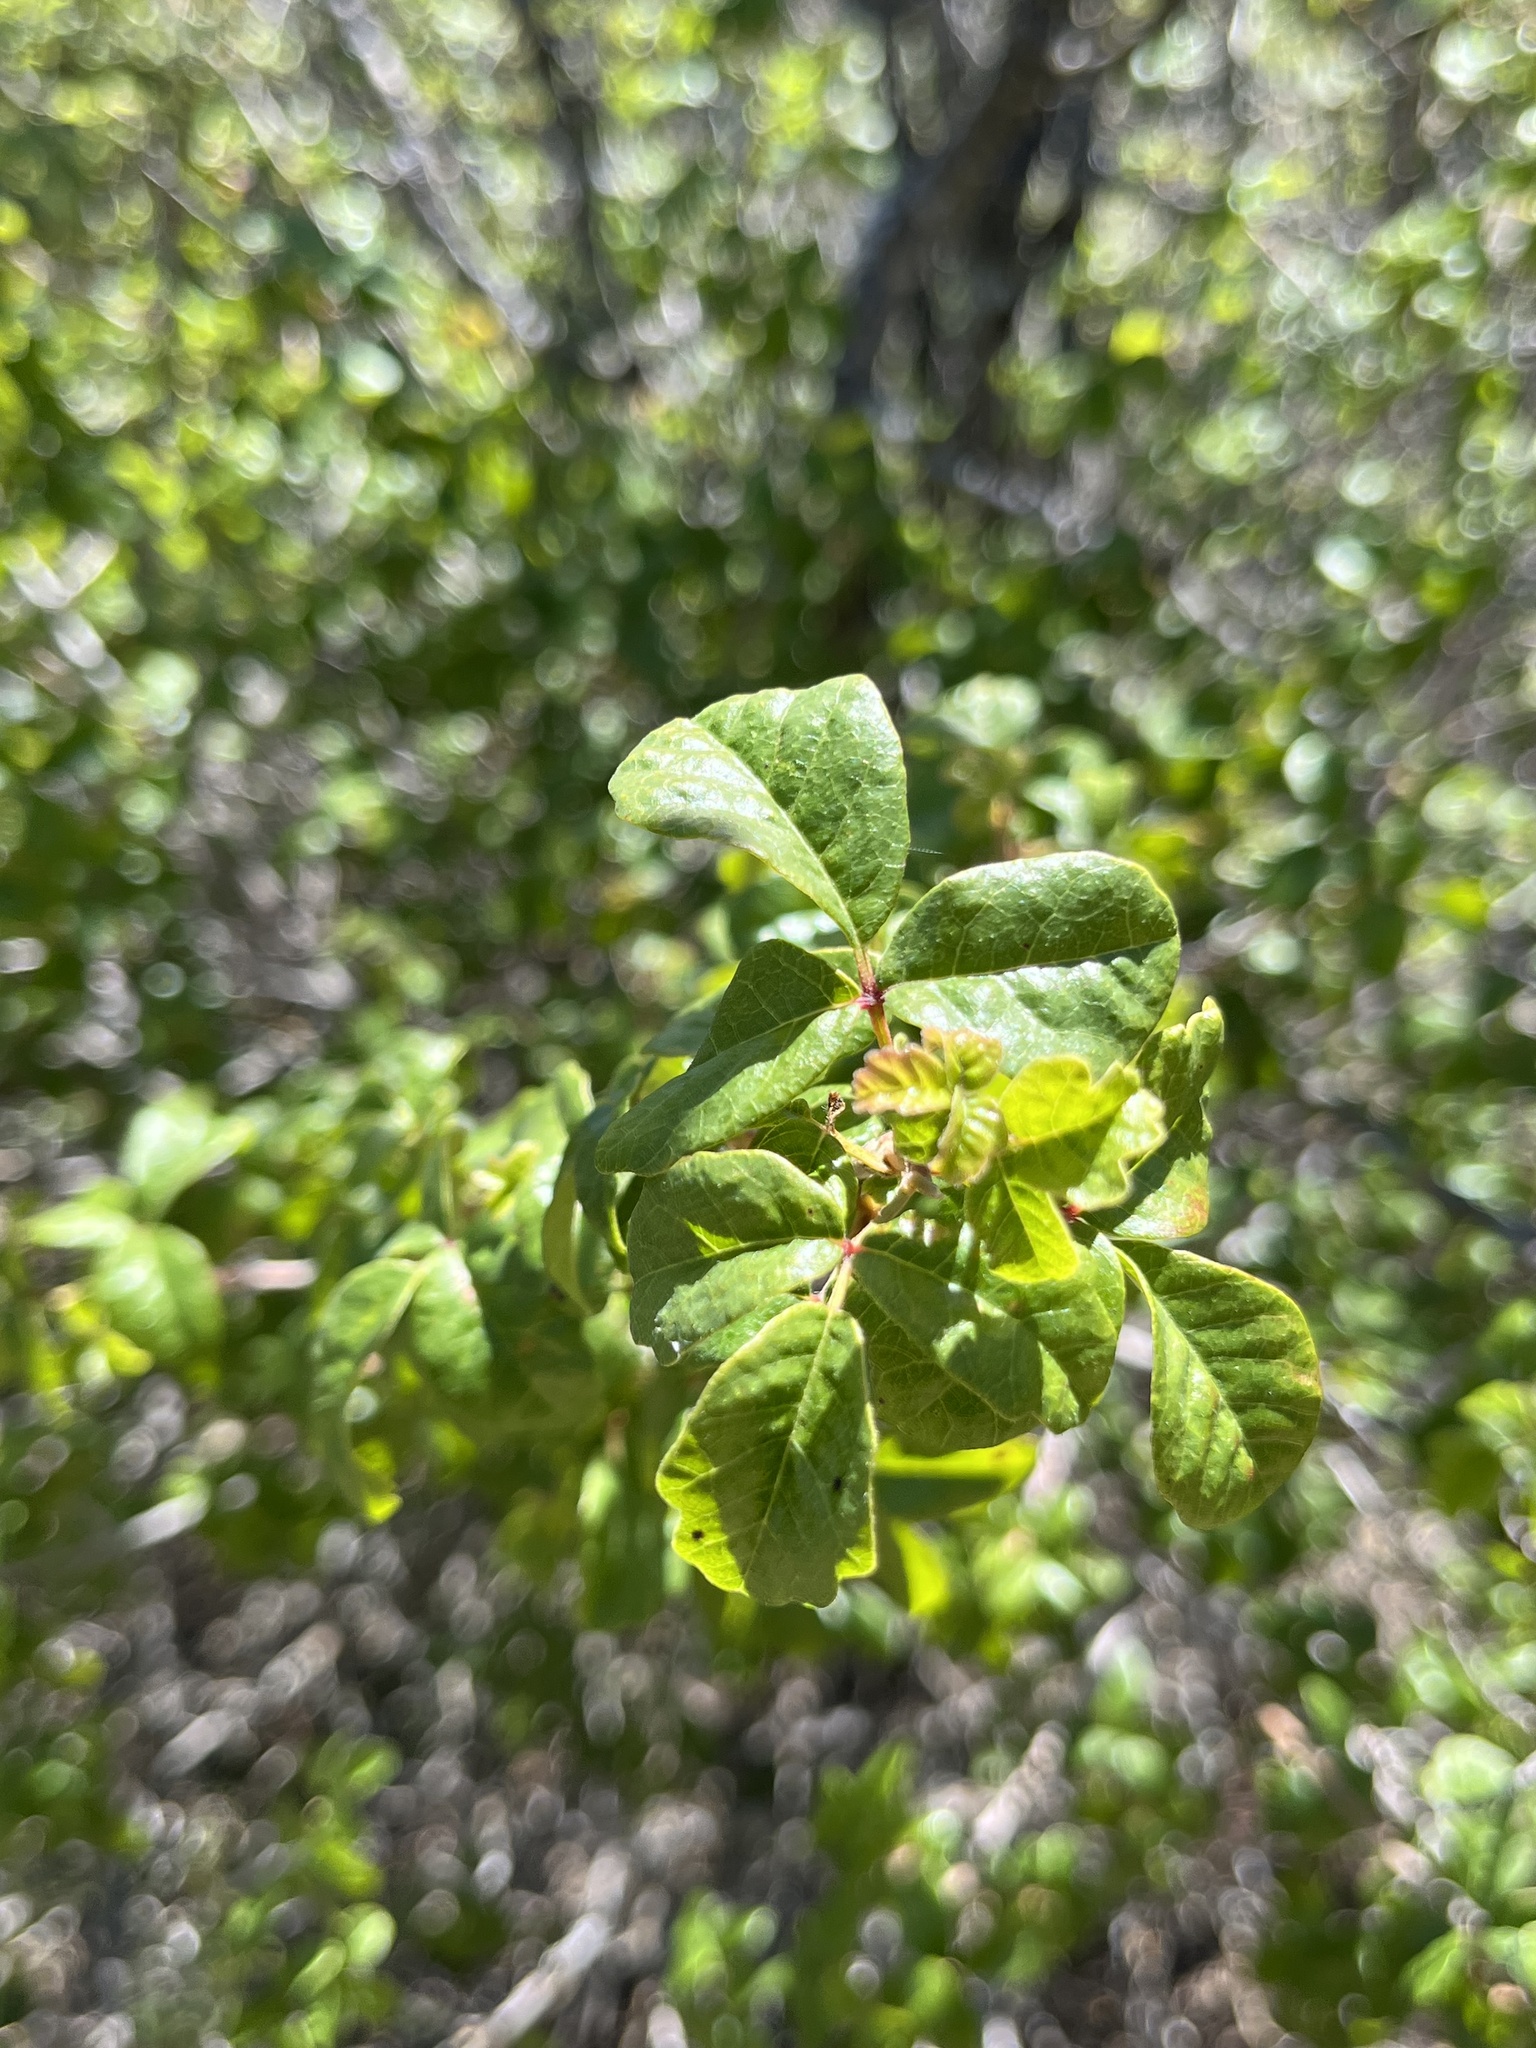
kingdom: Plantae
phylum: Tracheophyta
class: Magnoliopsida
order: Sapindales
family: Anacardiaceae
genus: Toxicodendron
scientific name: Toxicodendron diversilobum
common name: Pacific poison-oak
